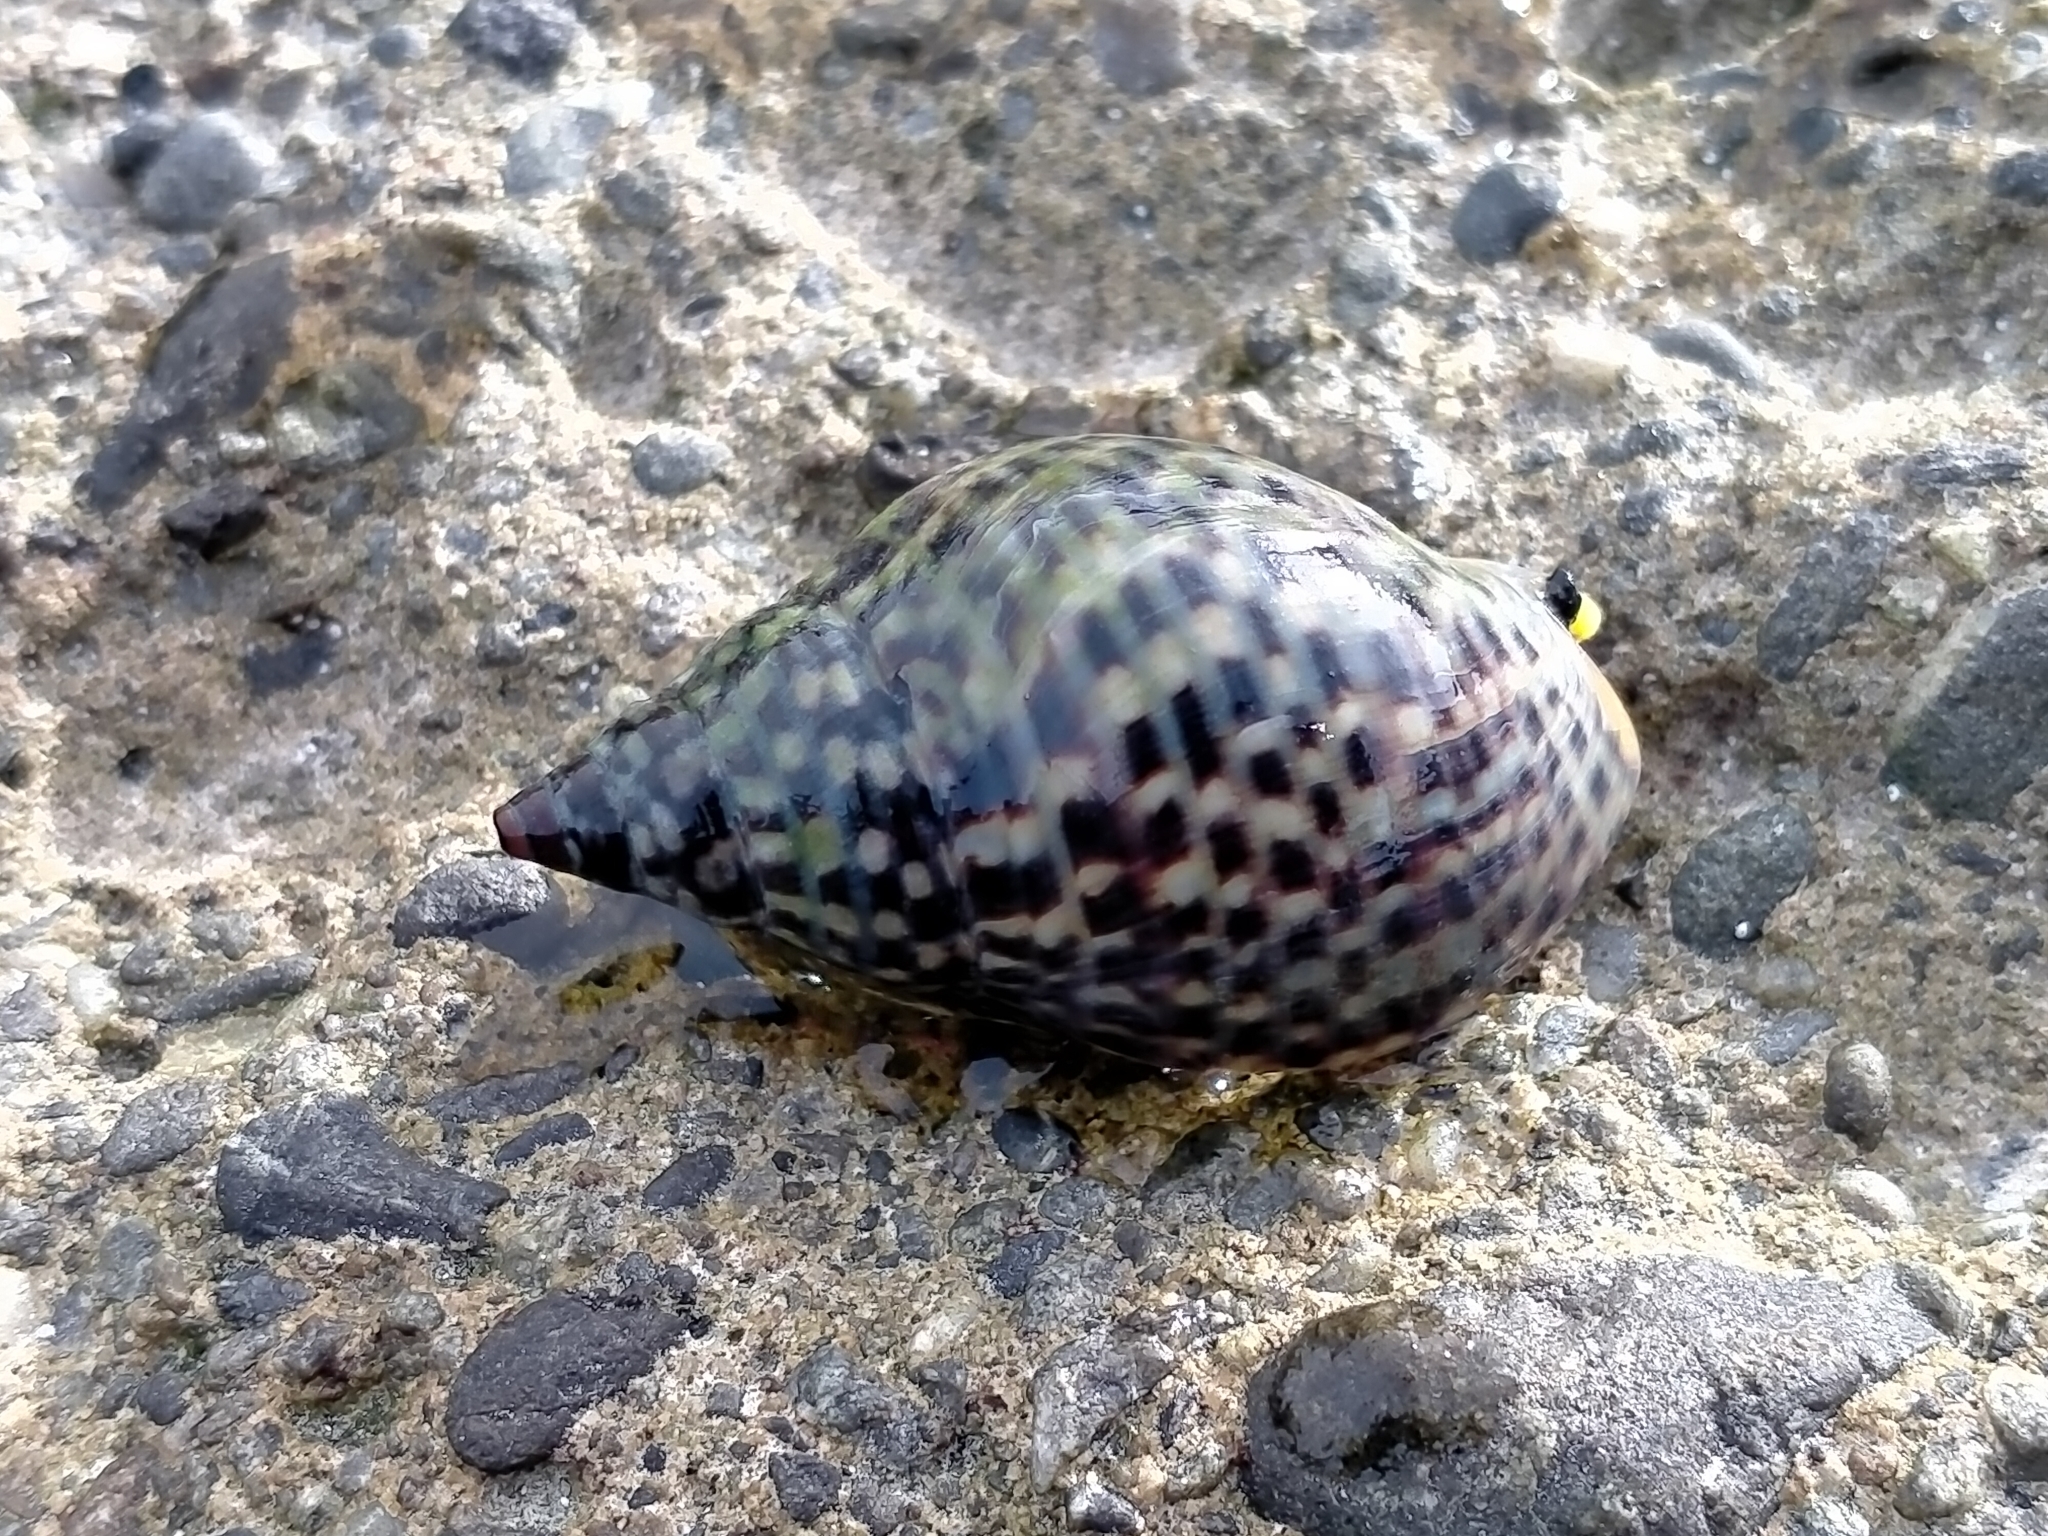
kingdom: Animalia
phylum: Mollusca
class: Gastropoda
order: Neogastropoda
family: Cominellidae
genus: Cominella
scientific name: Cominella maculosa
